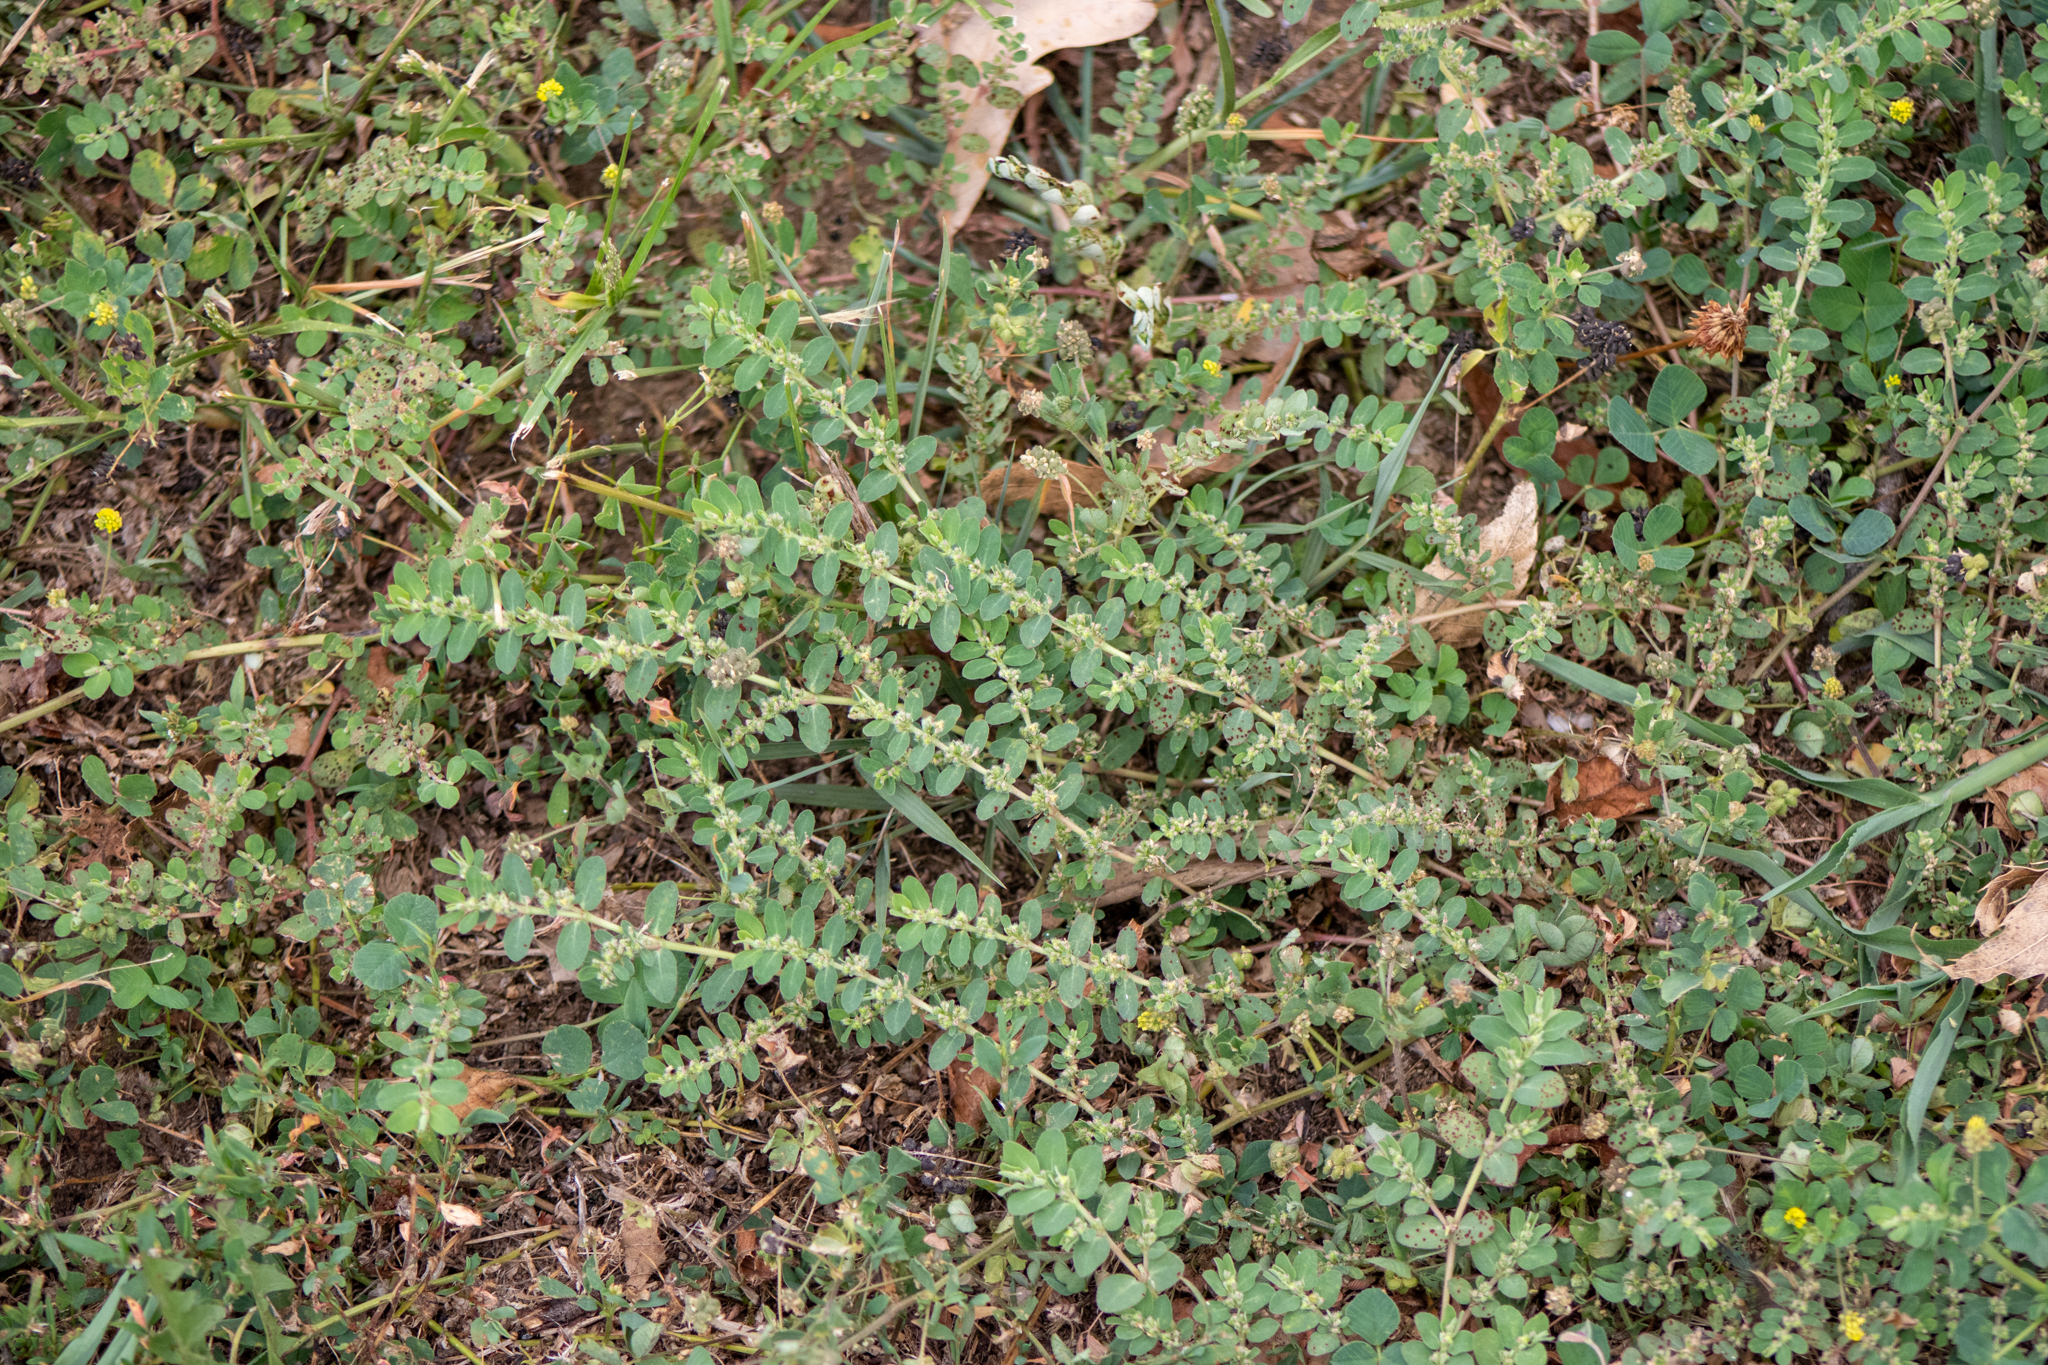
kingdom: Plantae
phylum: Tracheophyta
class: Magnoliopsida
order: Malpighiales
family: Euphorbiaceae
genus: Euphorbia
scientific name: Euphorbia prostrata
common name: Prostrate sandmat
